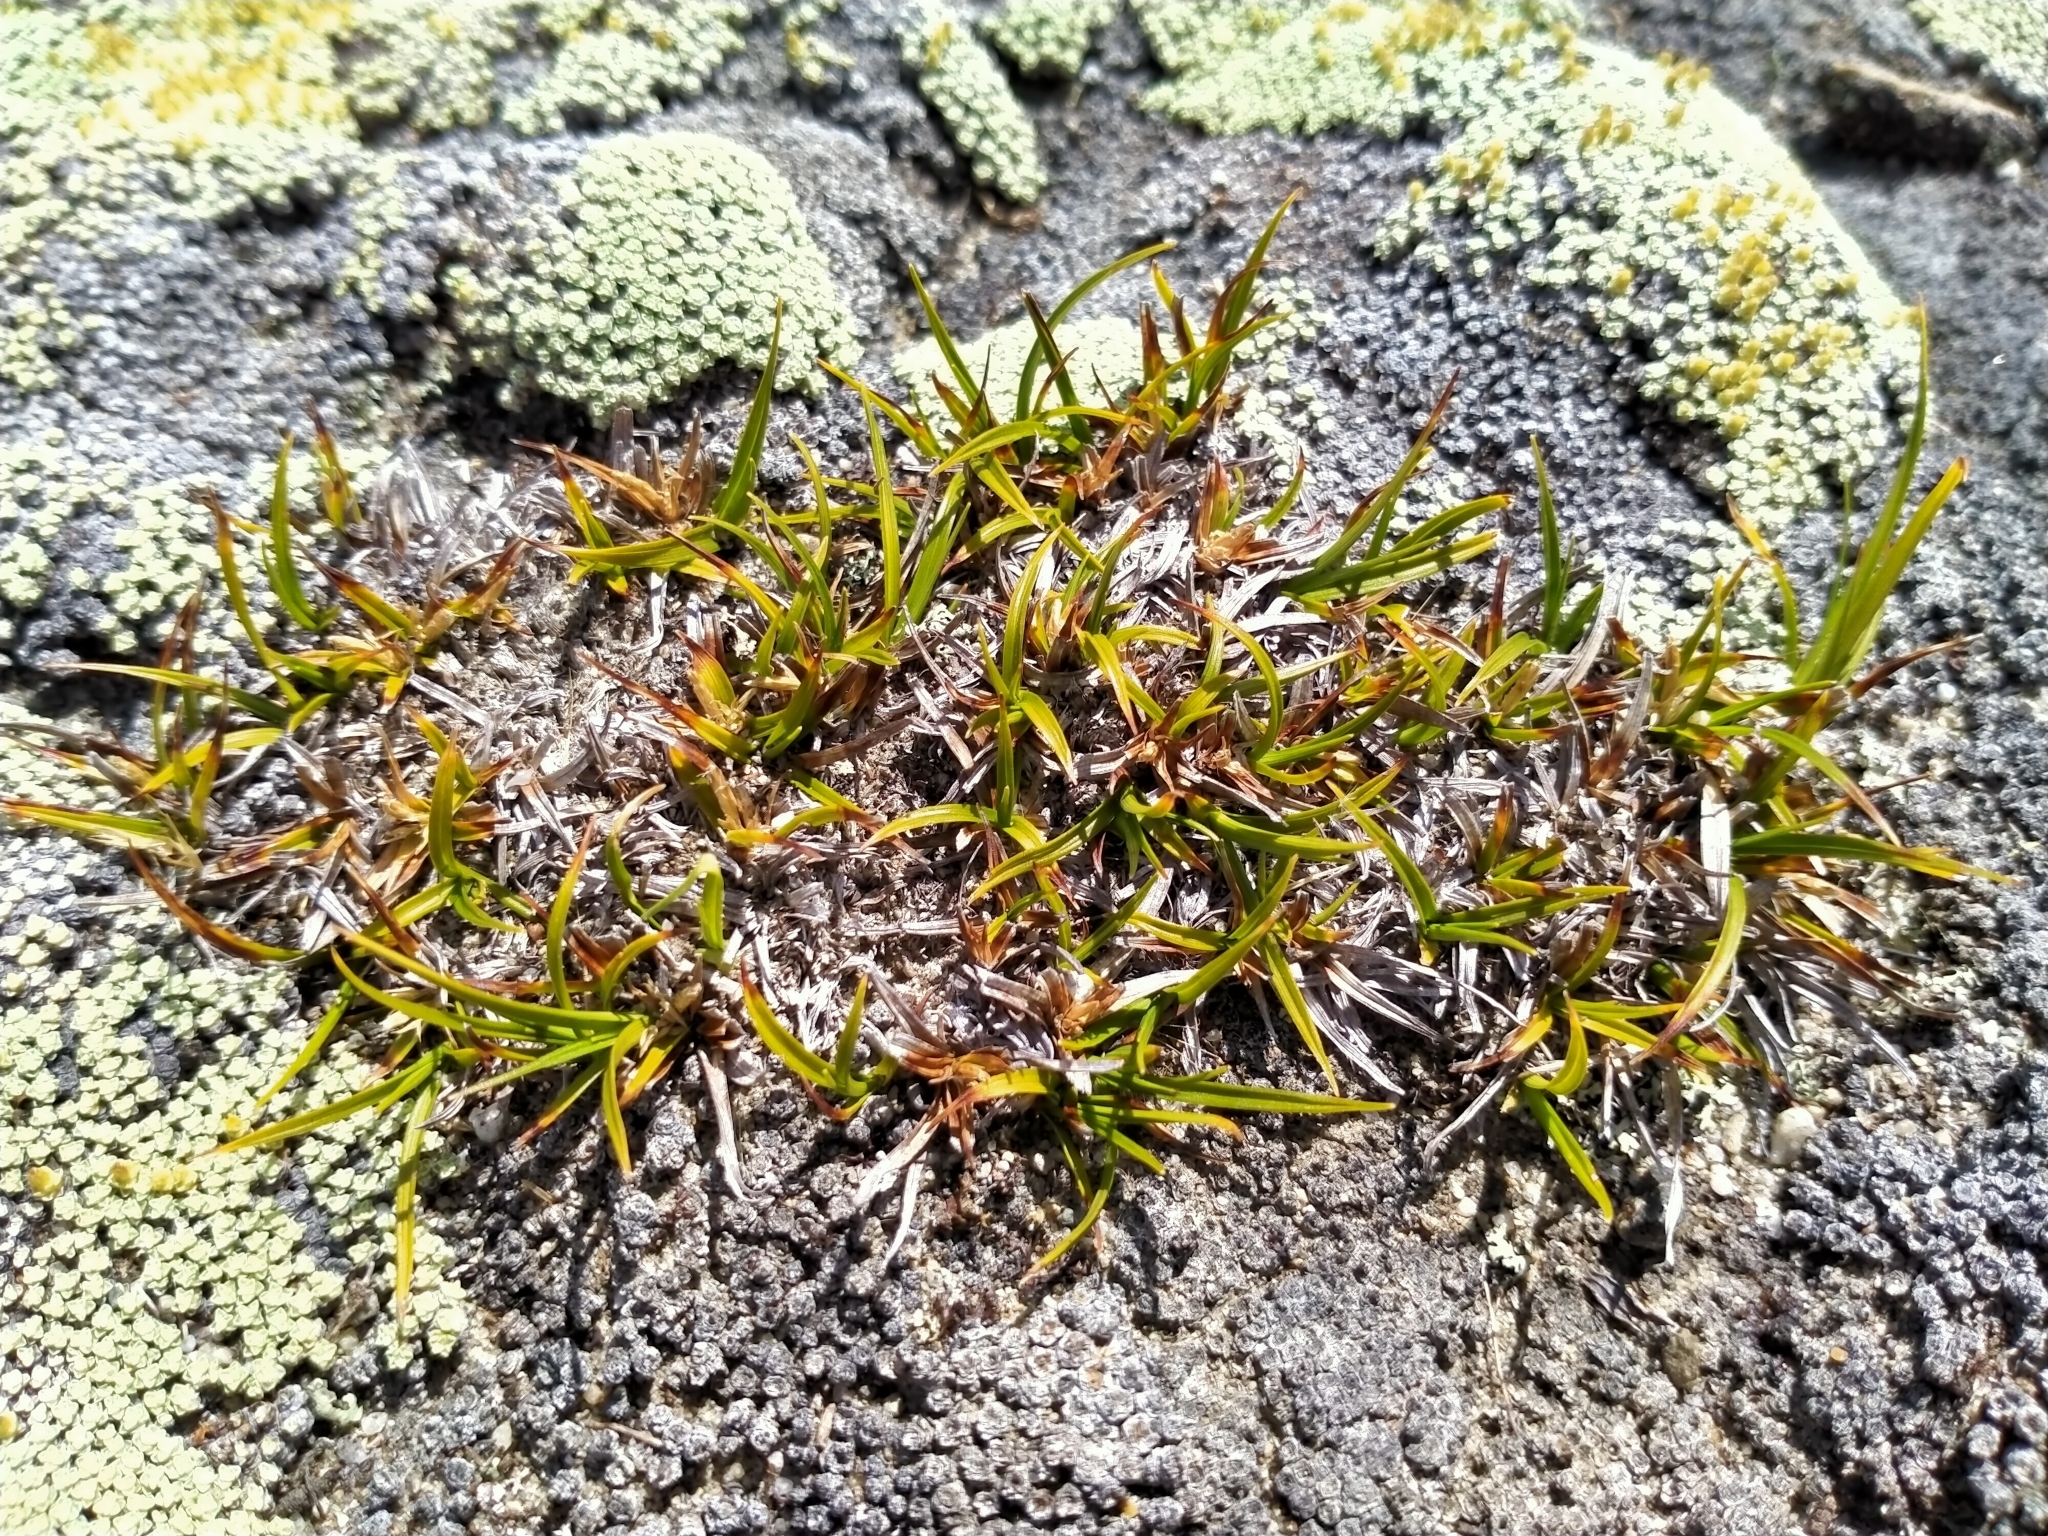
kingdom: Plantae
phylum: Tracheophyta
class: Liliopsida
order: Poales
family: Cyperaceae
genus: Carex
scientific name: Carex breviculmis
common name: Asian shortstem sedge
